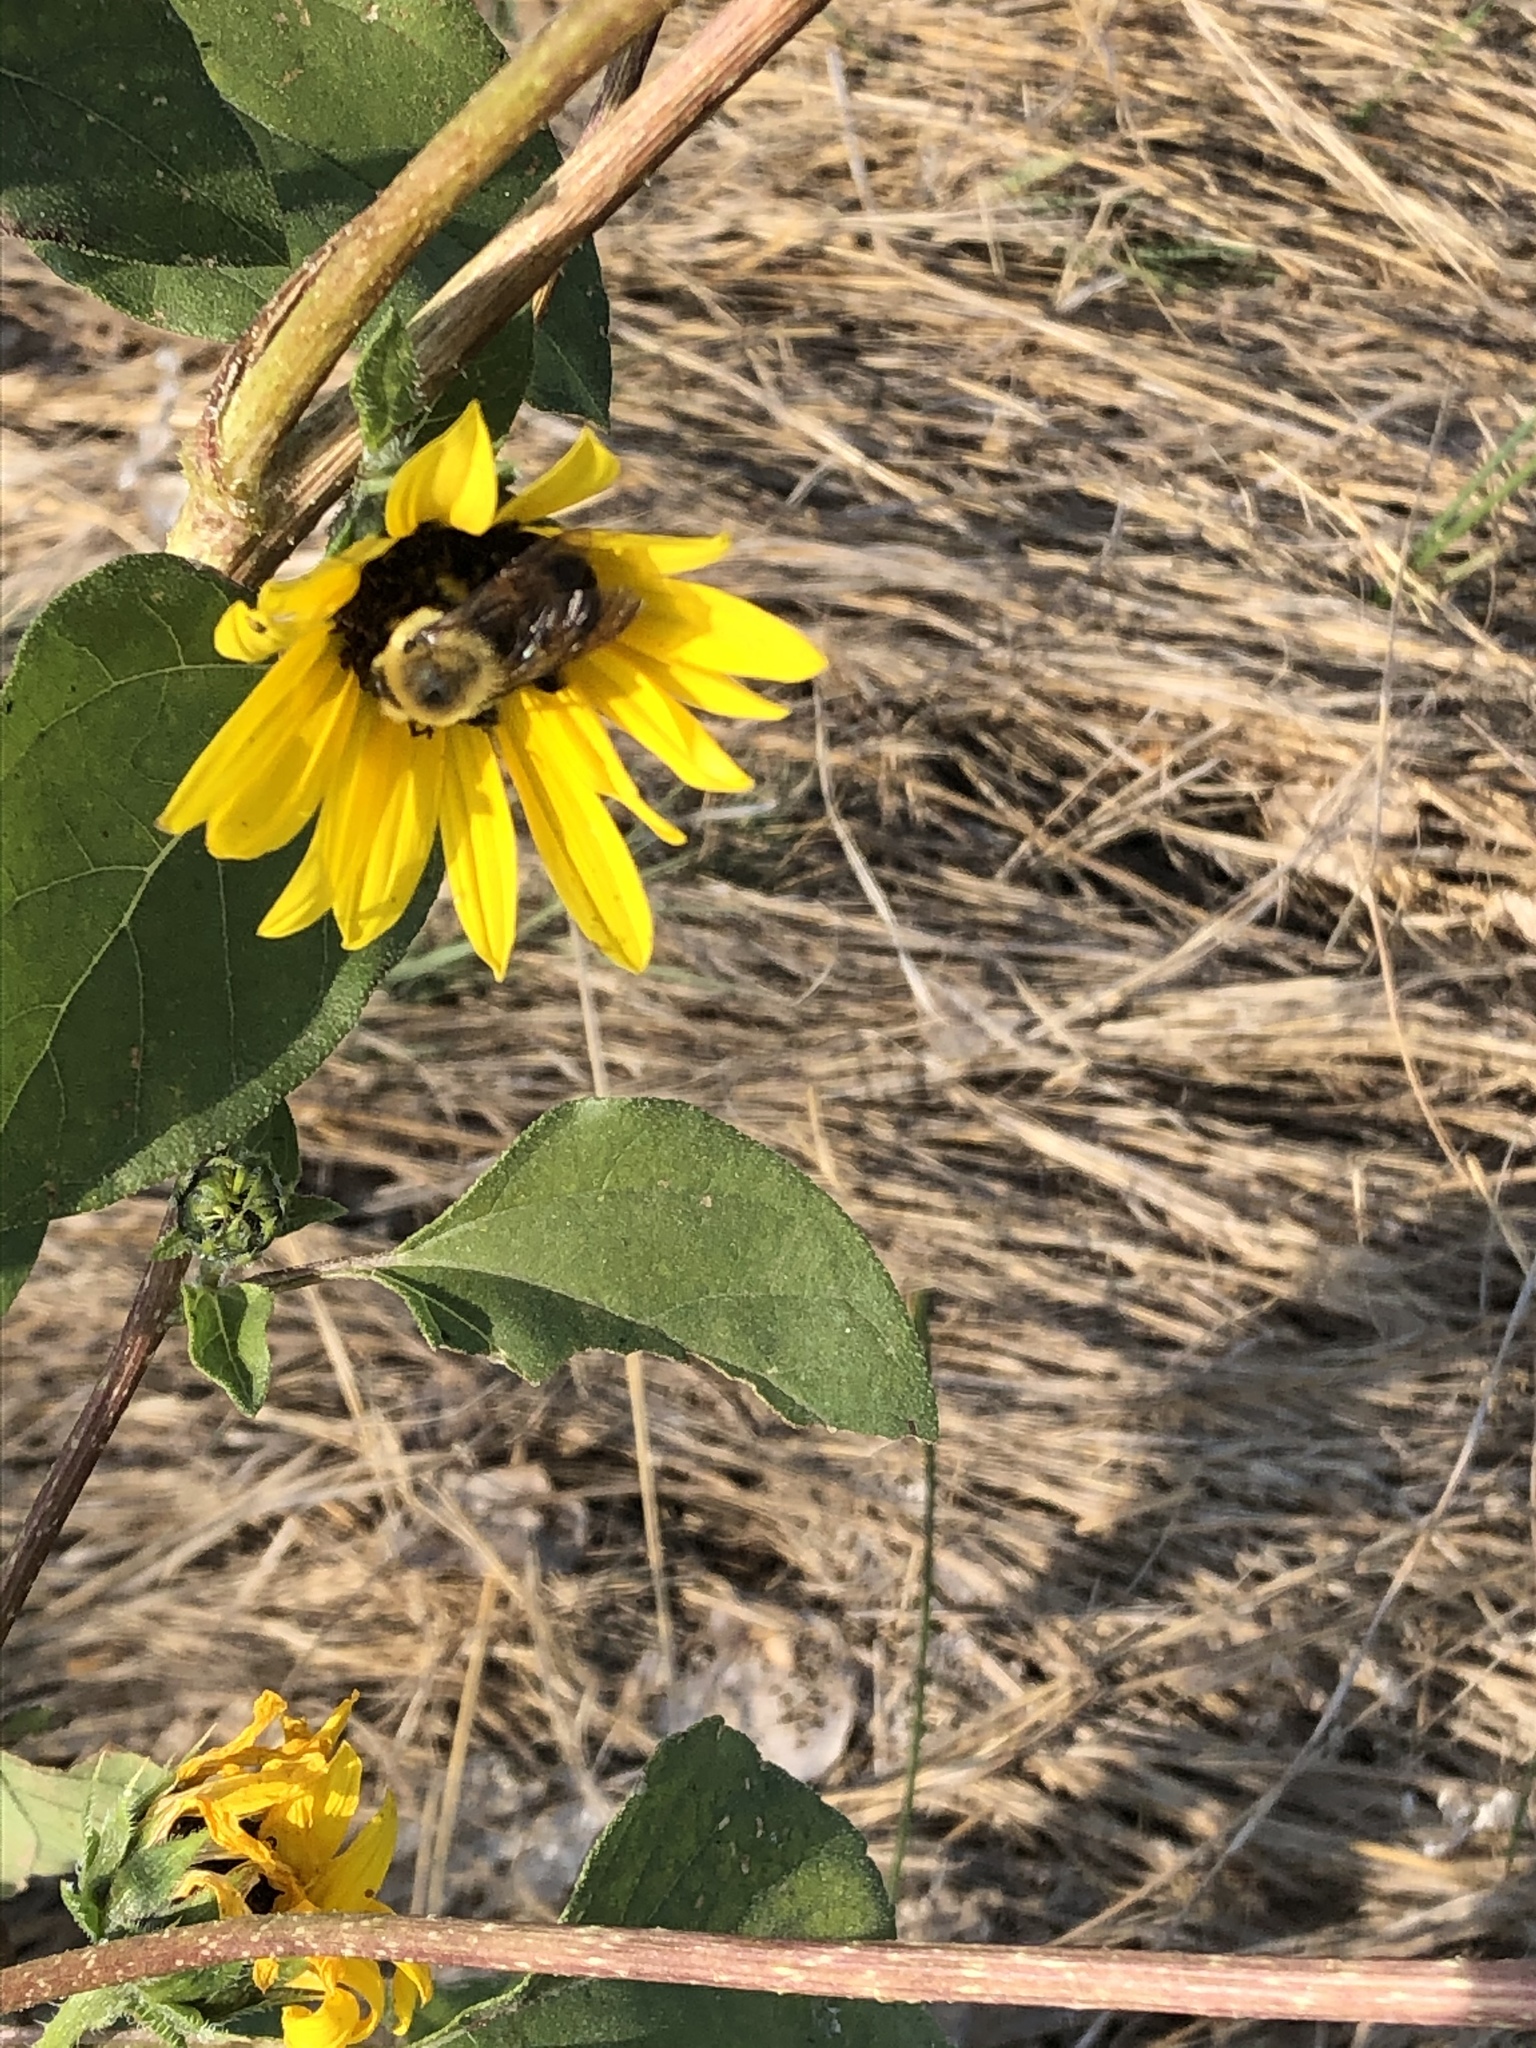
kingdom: Animalia
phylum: Arthropoda
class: Insecta
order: Hymenoptera
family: Apidae
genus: Bombus
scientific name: Bombus griseocollis
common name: Brown-belted bumble bee
